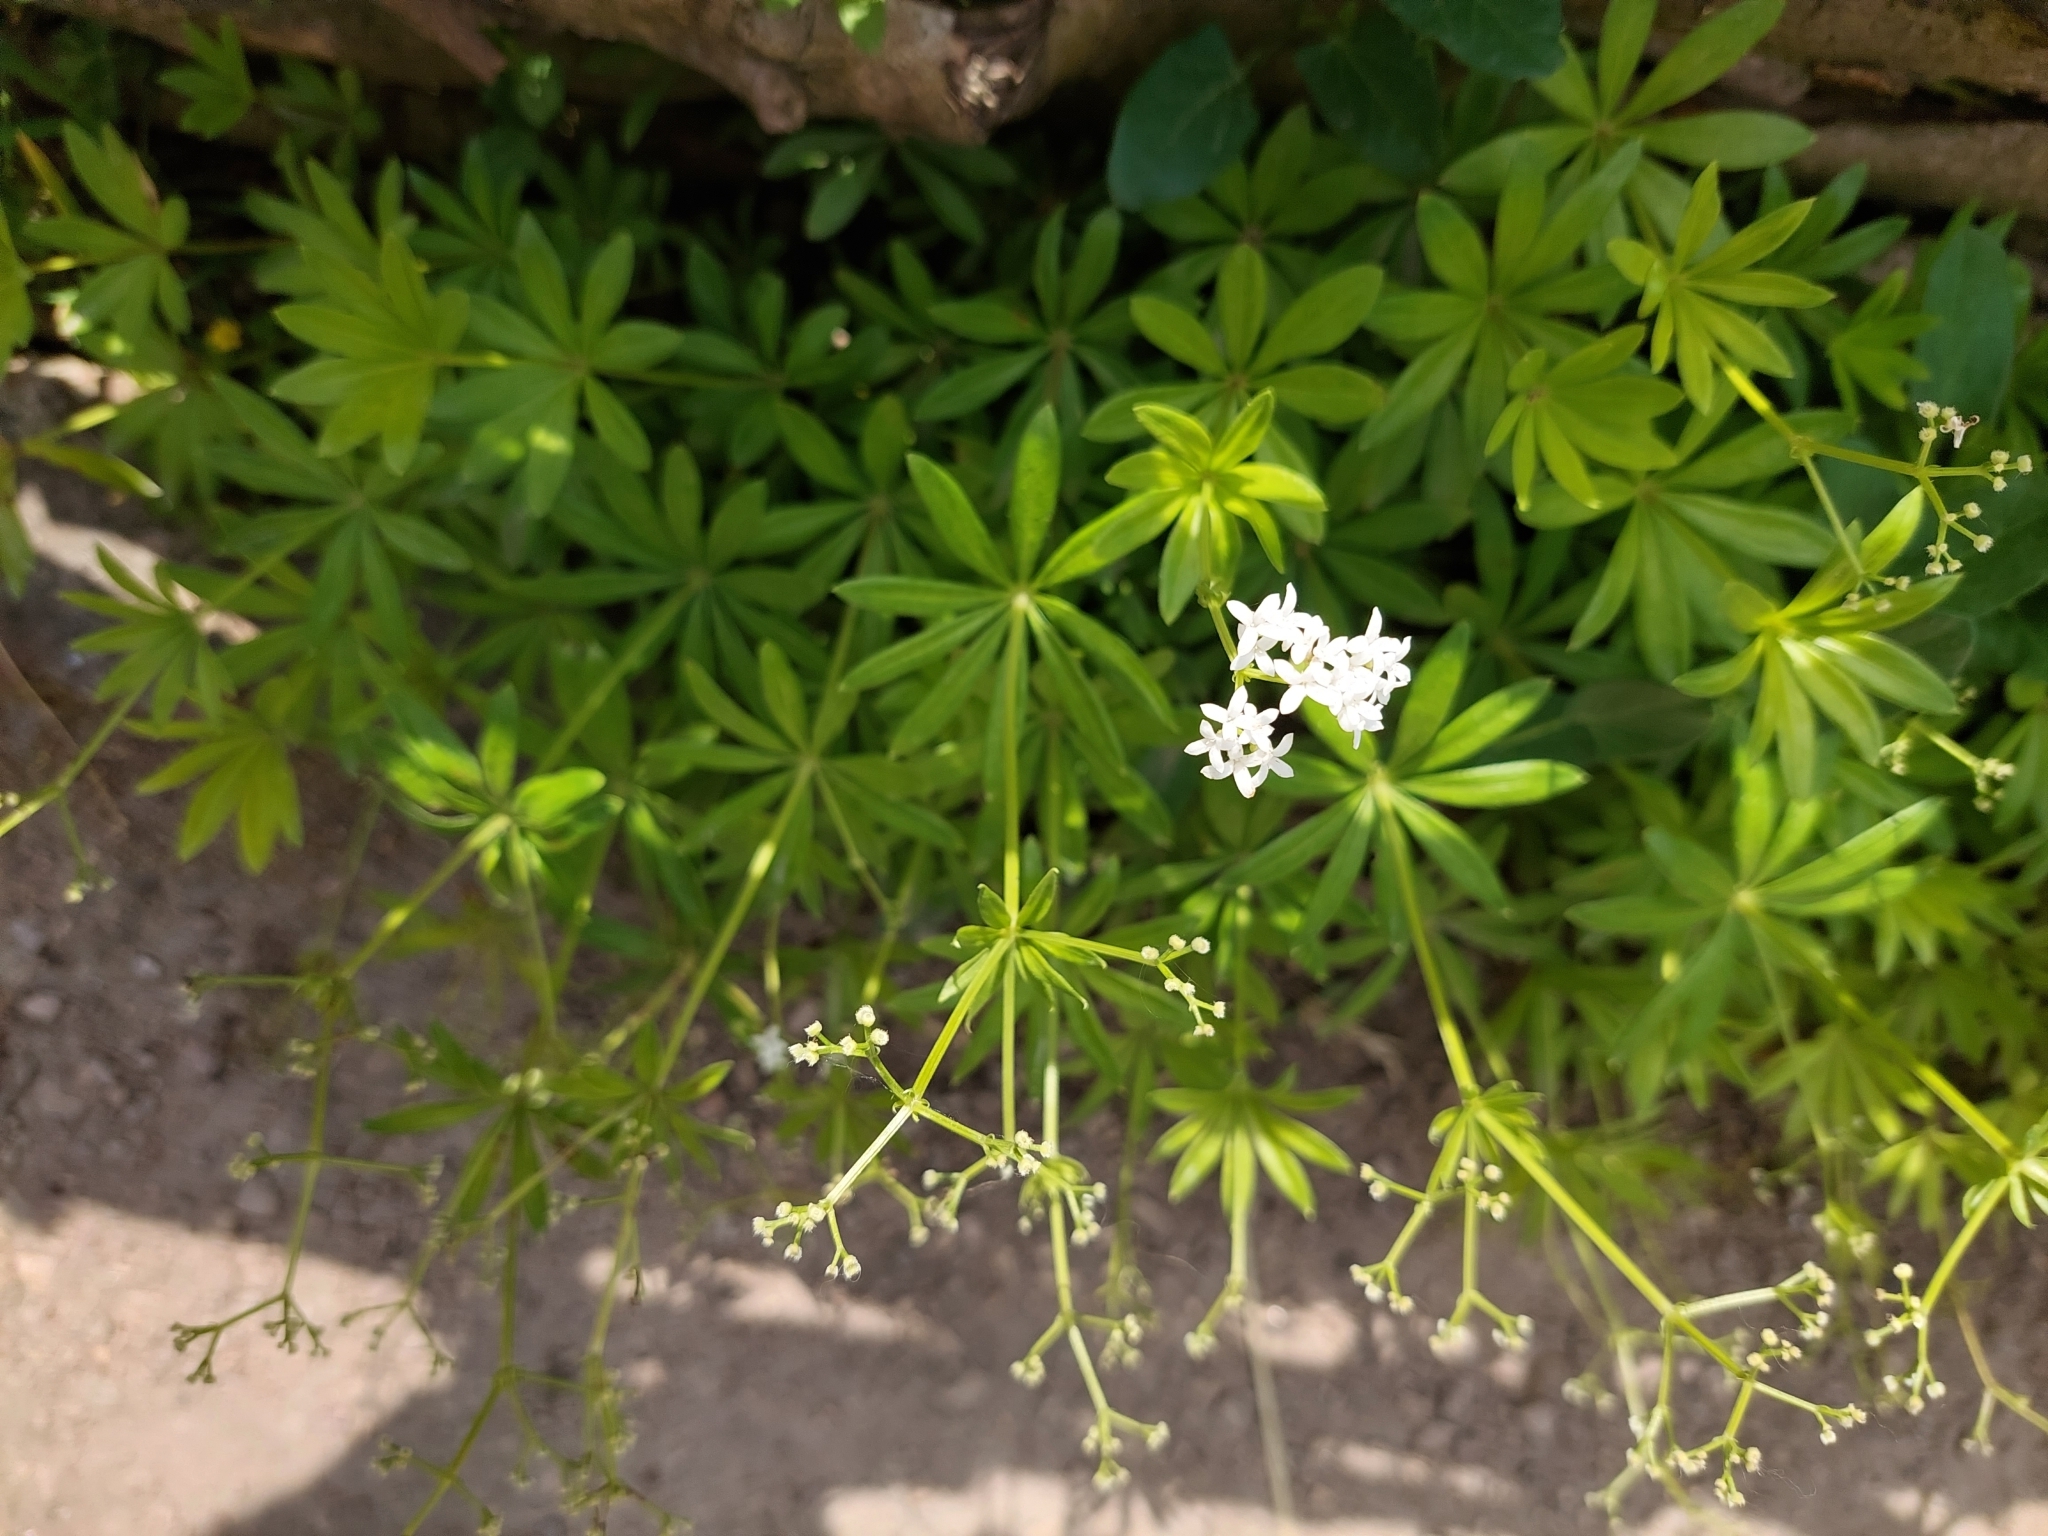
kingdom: Plantae
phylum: Tracheophyta
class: Magnoliopsida
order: Gentianales
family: Rubiaceae
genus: Galium
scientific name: Galium odoratum
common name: Sweet woodruff
